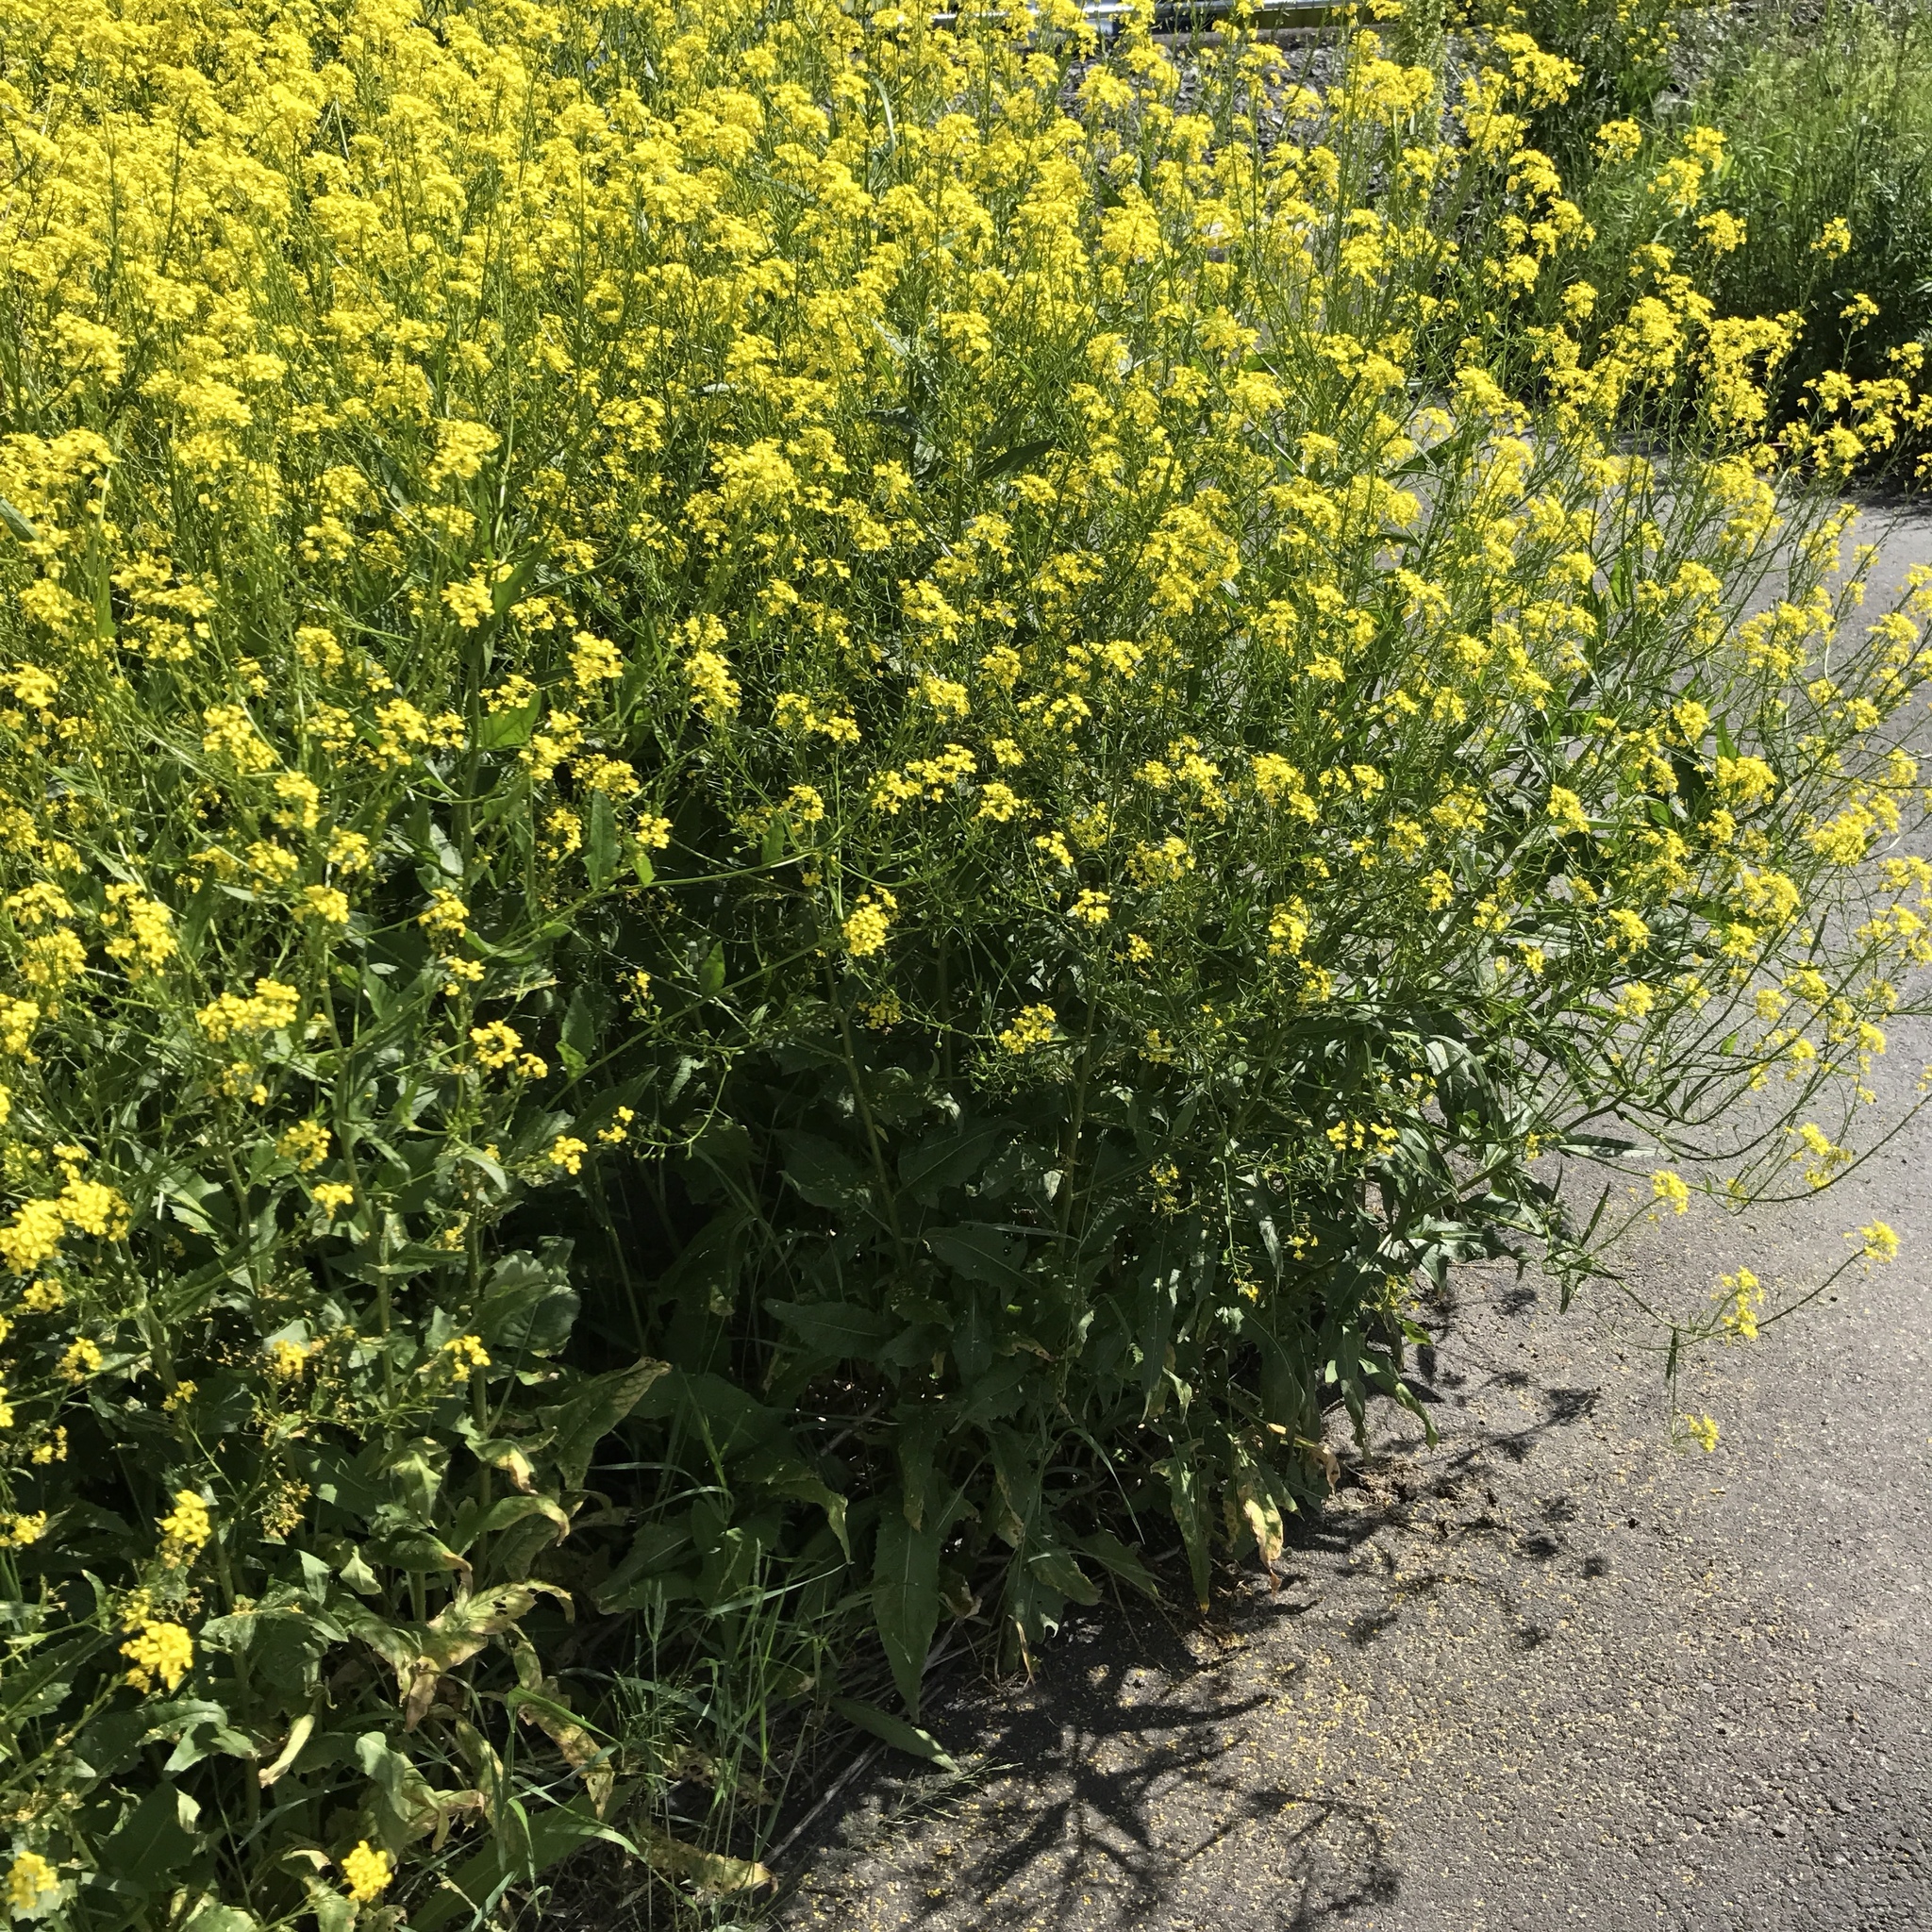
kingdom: Plantae
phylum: Tracheophyta
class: Magnoliopsida
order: Brassicales
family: Brassicaceae
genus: Bunias
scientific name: Bunias orientalis
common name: Warty-cabbage
